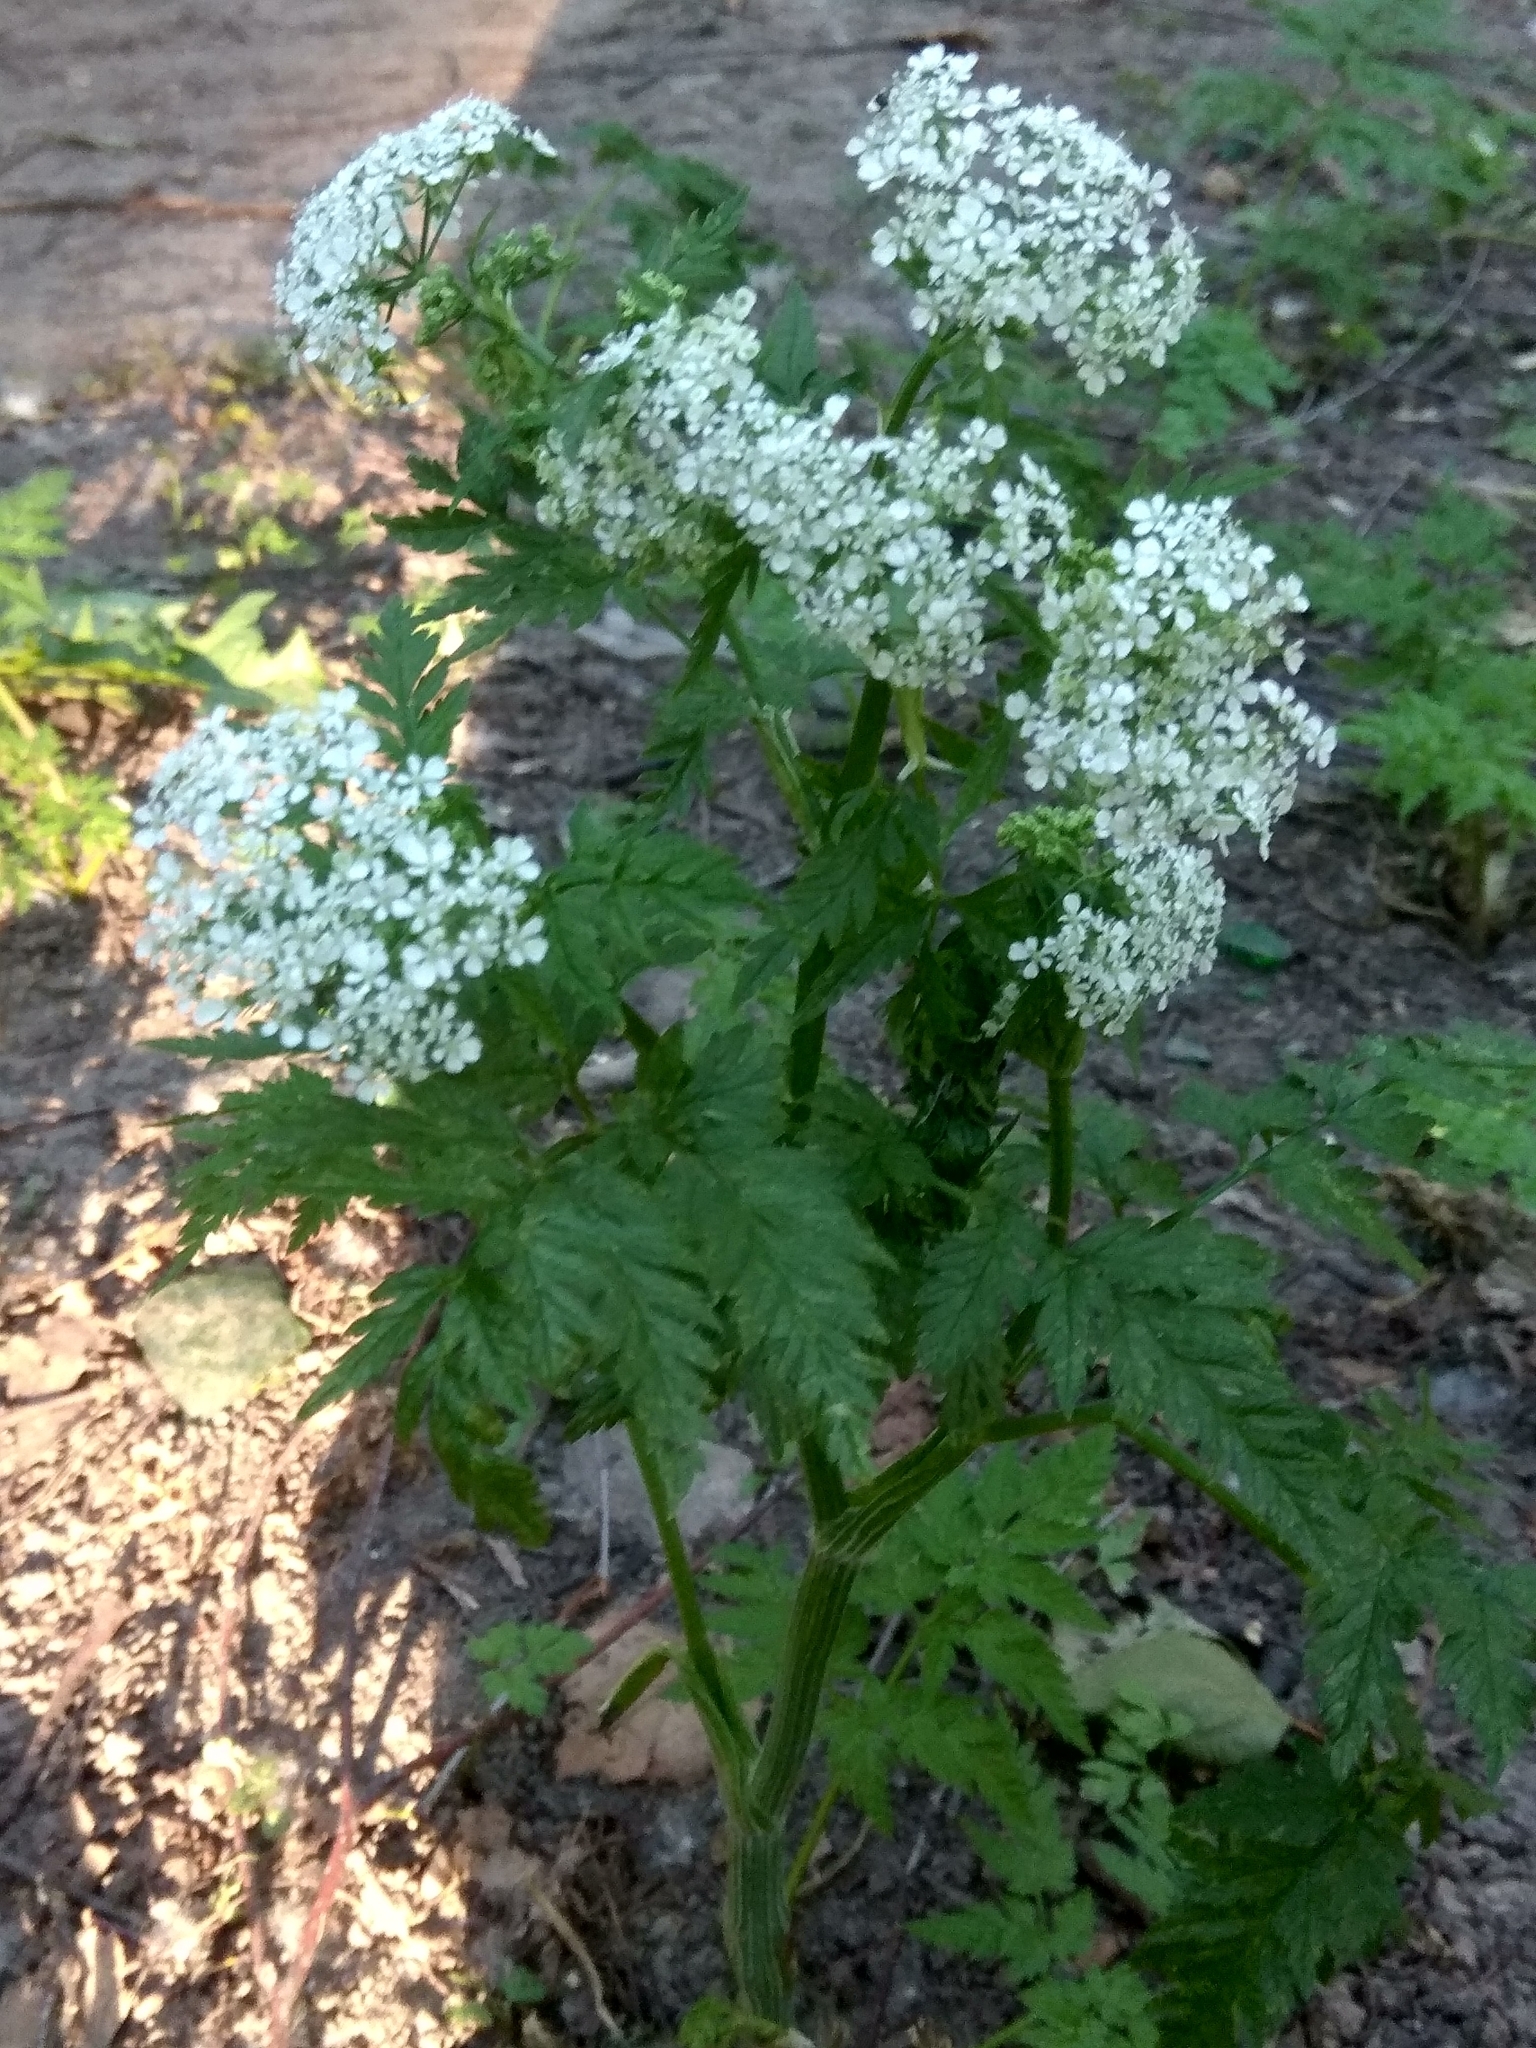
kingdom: Plantae
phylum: Tracheophyta
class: Magnoliopsida
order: Apiales
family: Apiaceae
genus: Anthriscus
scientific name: Anthriscus sylvestris
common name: Cow parsley
